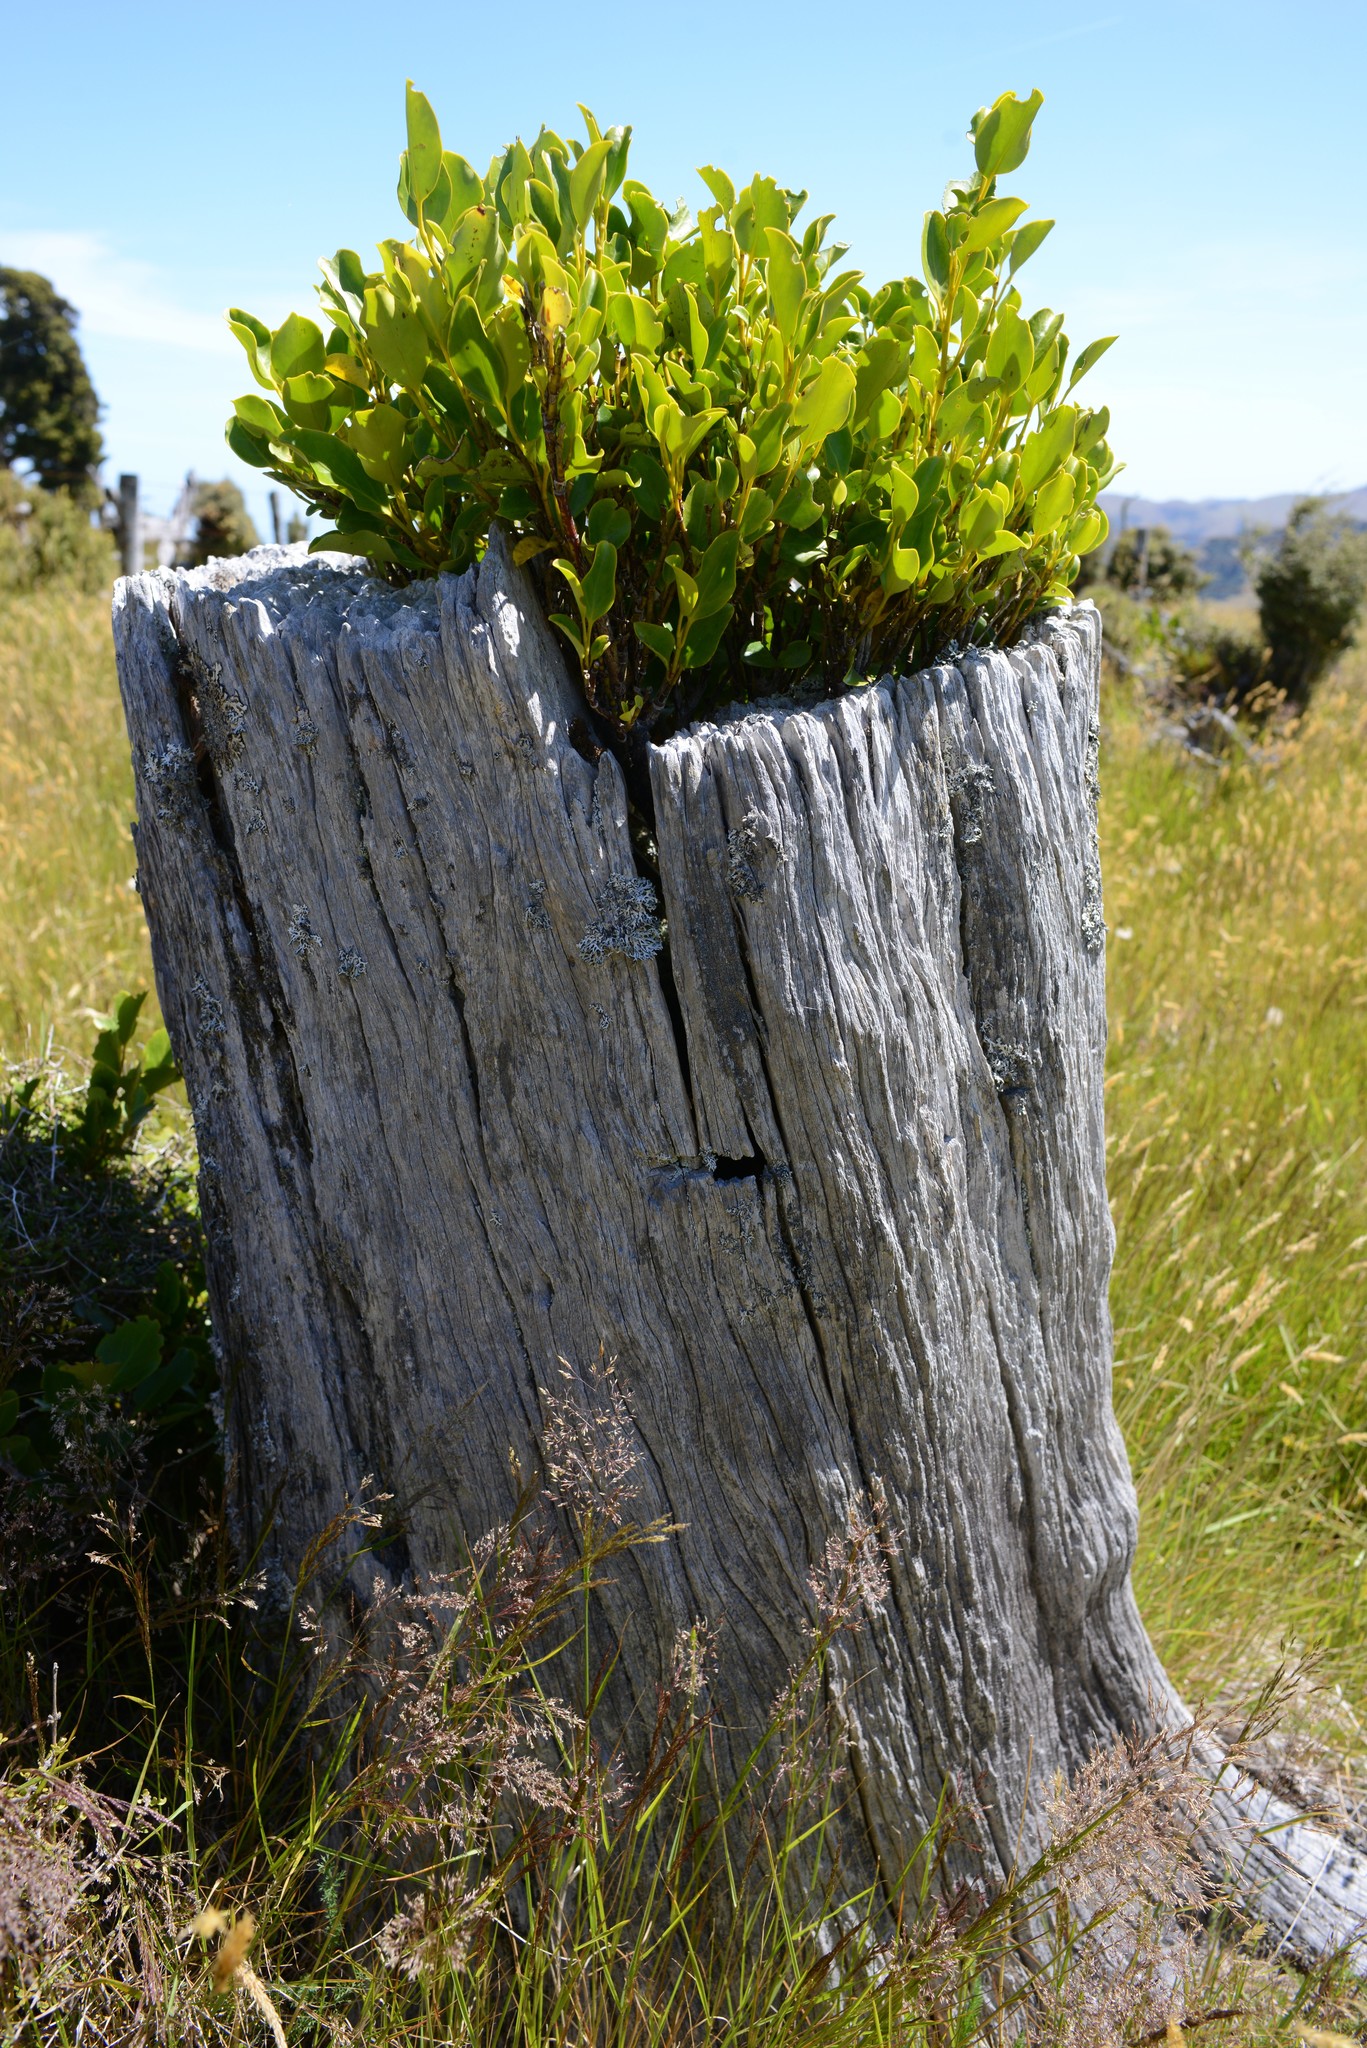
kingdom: Plantae
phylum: Tracheophyta
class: Magnoliopsida
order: Apiales
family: Griseliniaceae
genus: Griselinia
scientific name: Griselinia littoralis
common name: New zealand broadleaf
